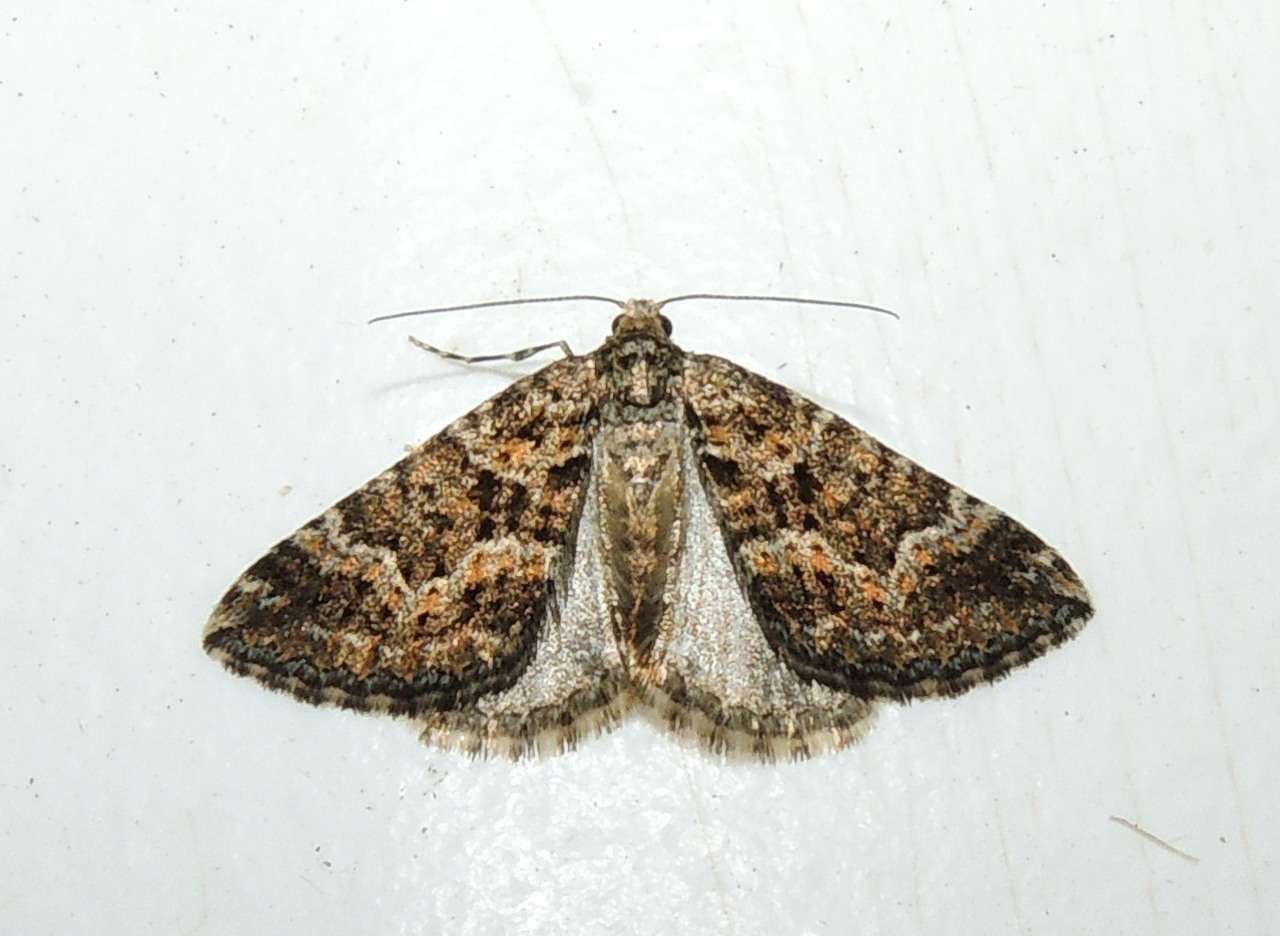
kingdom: Animalia
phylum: Arthropoda
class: Insecta
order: Lepidoptera
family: Geometridae
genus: Xanthorhoe
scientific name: Xanthorhoe xanthospila
